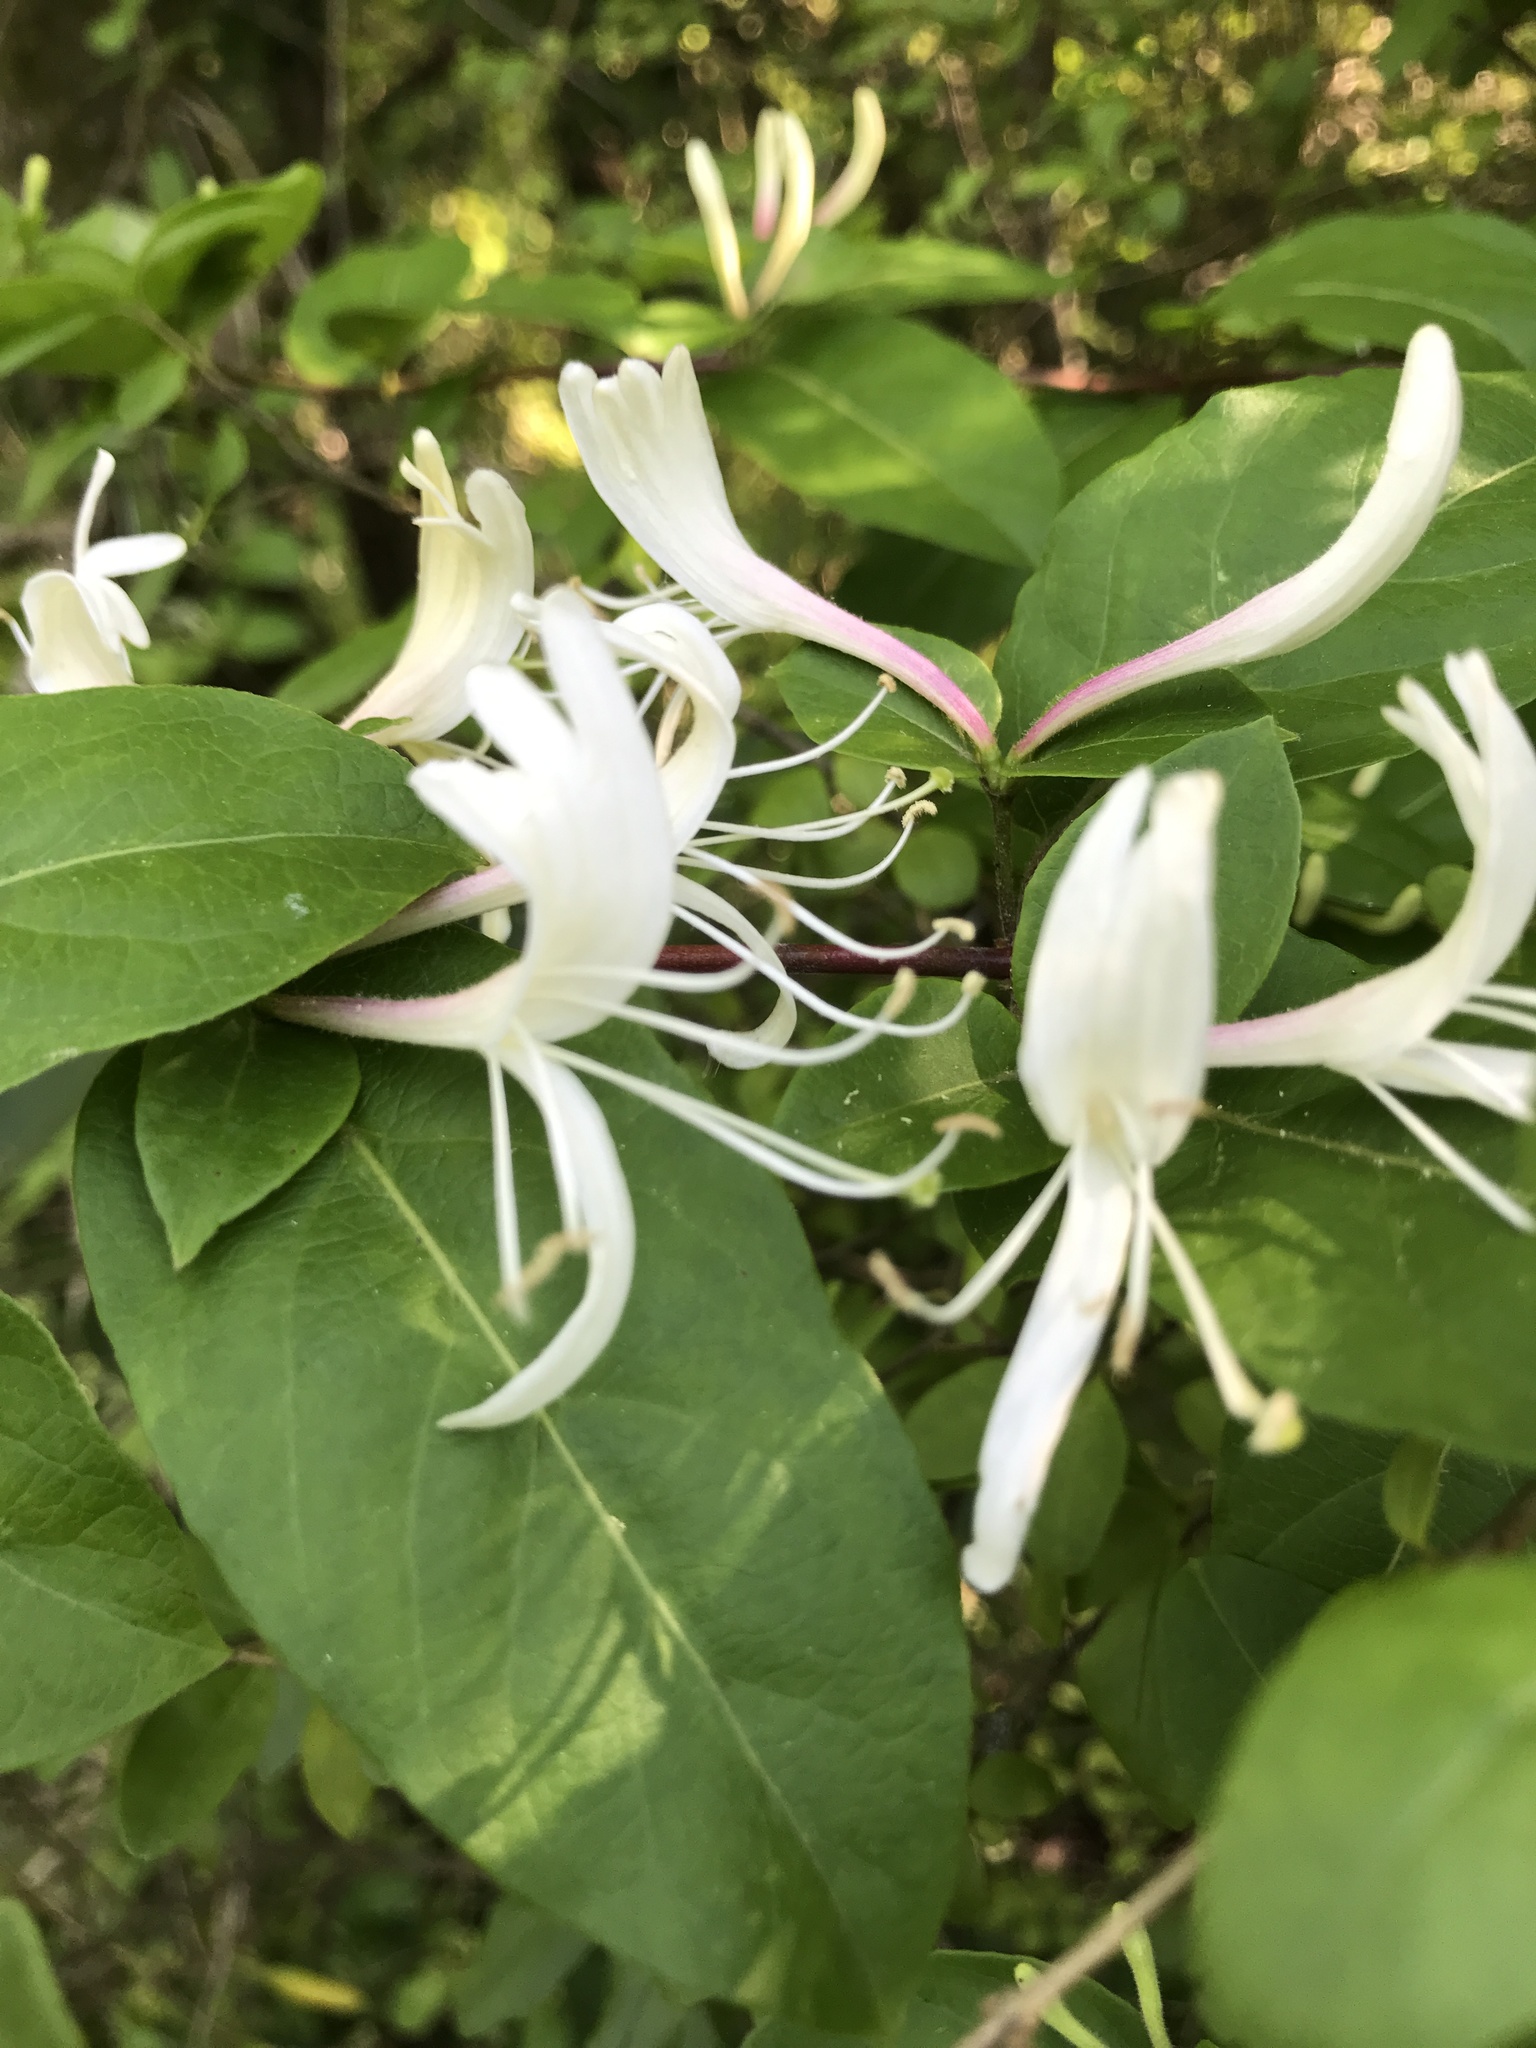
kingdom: Plantae
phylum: Tracheophyta
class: Magnoliopsida
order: Dipsacales
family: Caprifoliaceae
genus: Lonicera
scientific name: Lonicera japonica
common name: Japanese honeysuckle
